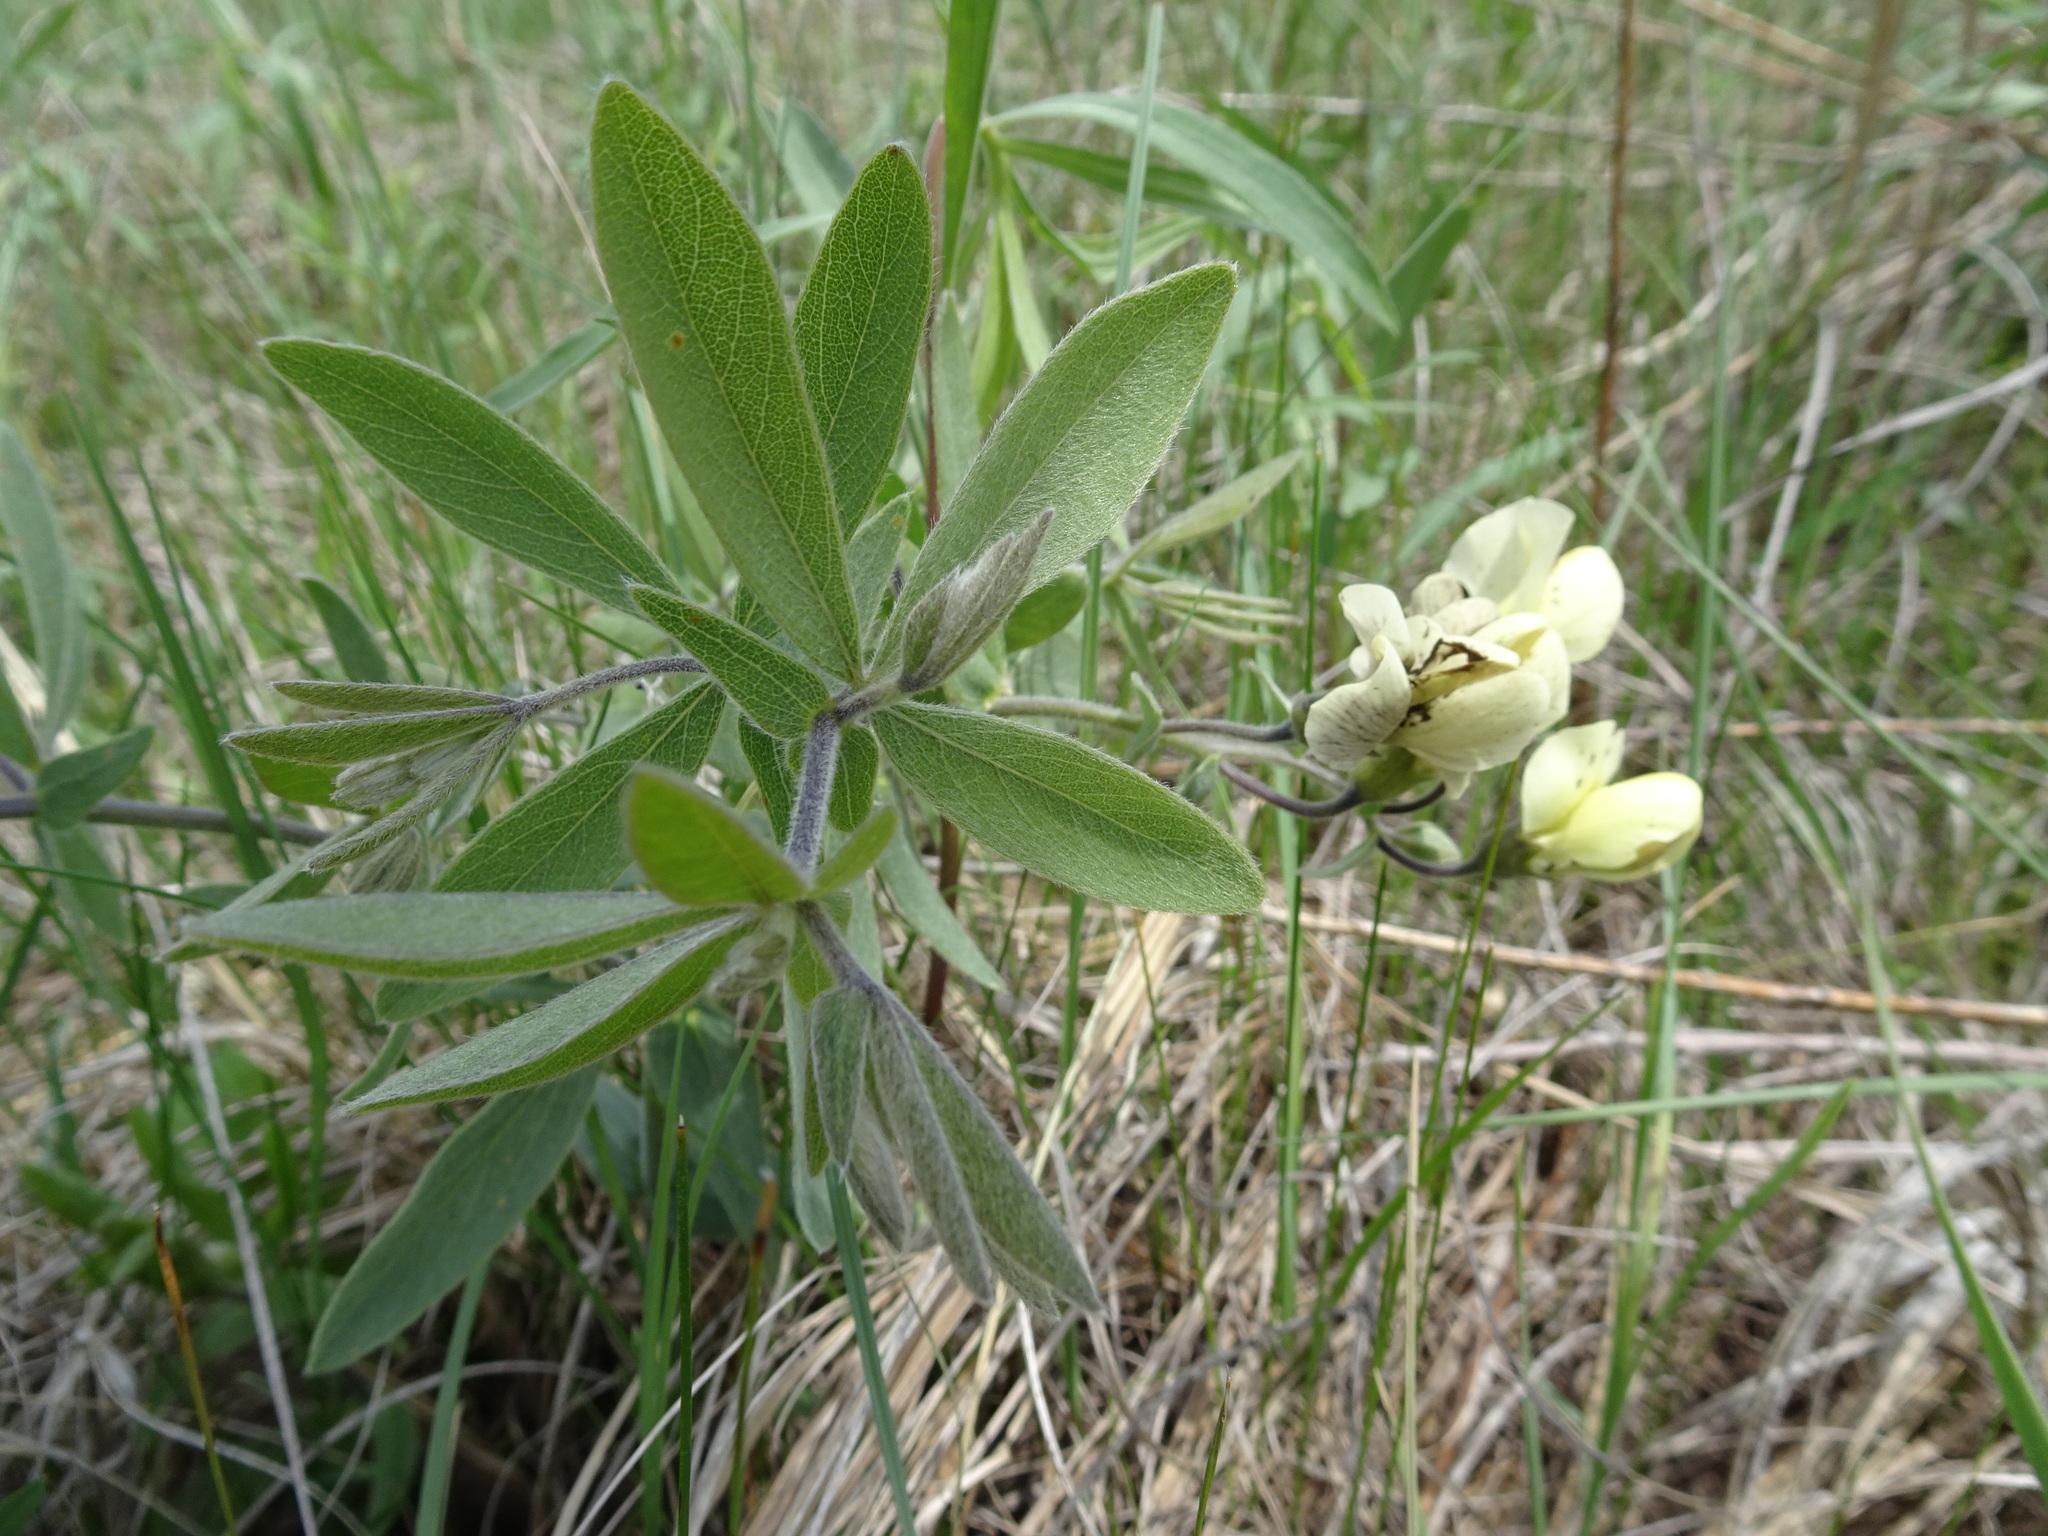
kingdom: Plantae
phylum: Tracheophyta
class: Magnoliopsida
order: Fabales
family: Fabaceae
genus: Baptisia
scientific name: Baptisia bracteata
